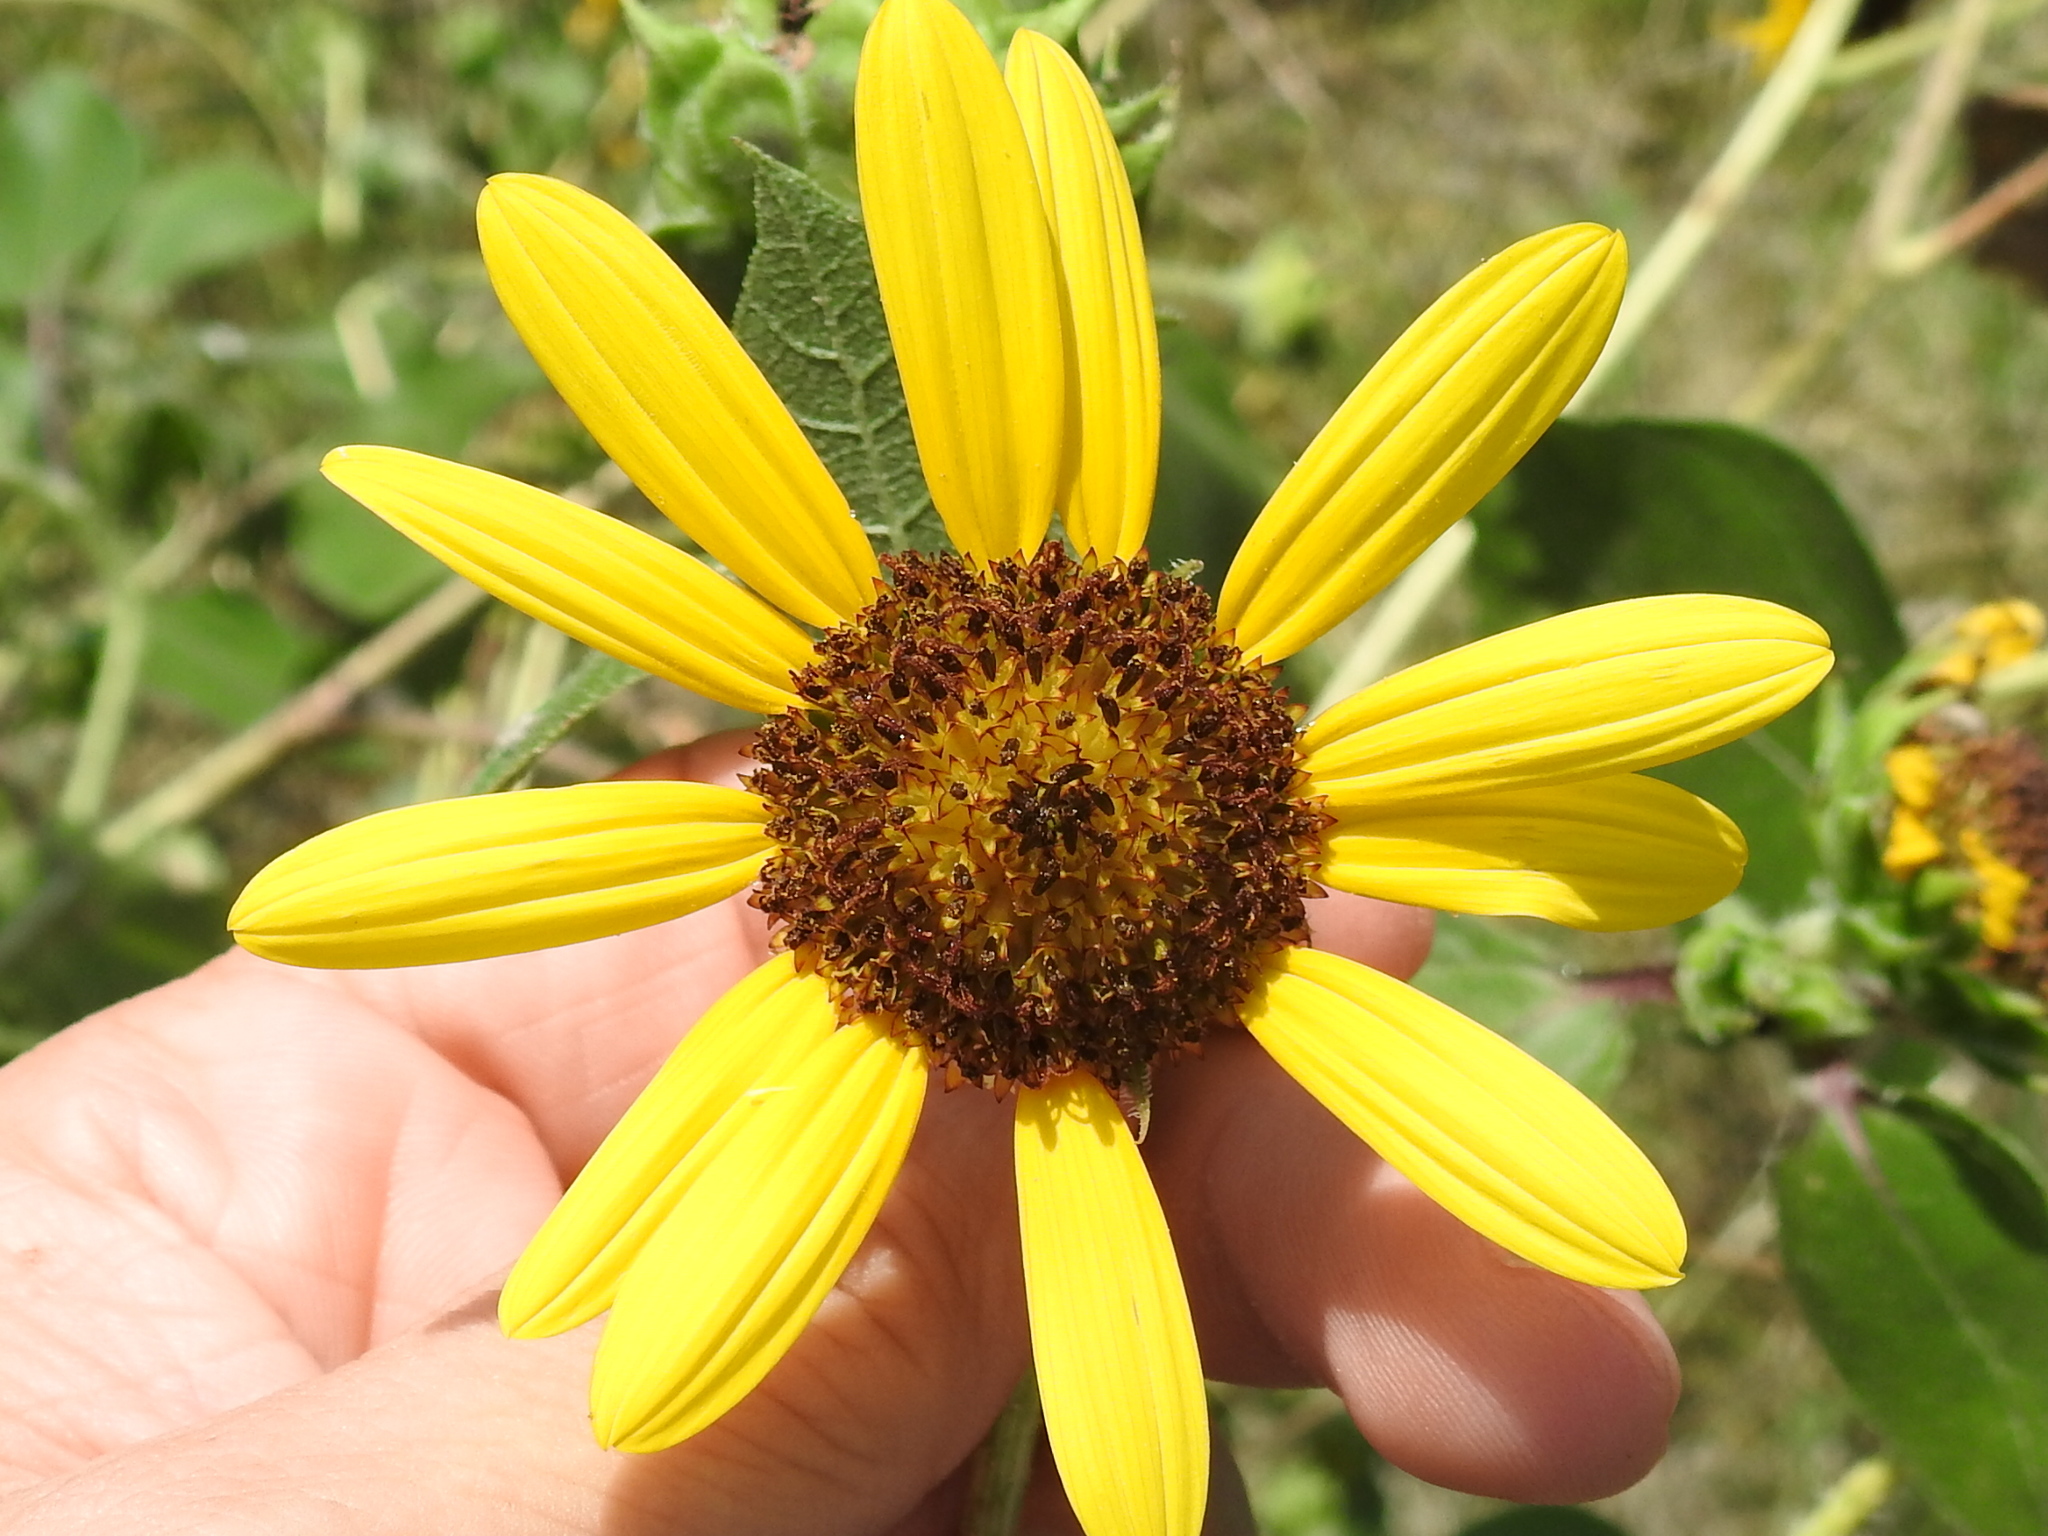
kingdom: Plantae
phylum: Tracheophyta
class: Magnoliopsida
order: Asterales
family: Asteraceae
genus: Helianthus
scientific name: Helianthus annuus
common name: Sunflower
